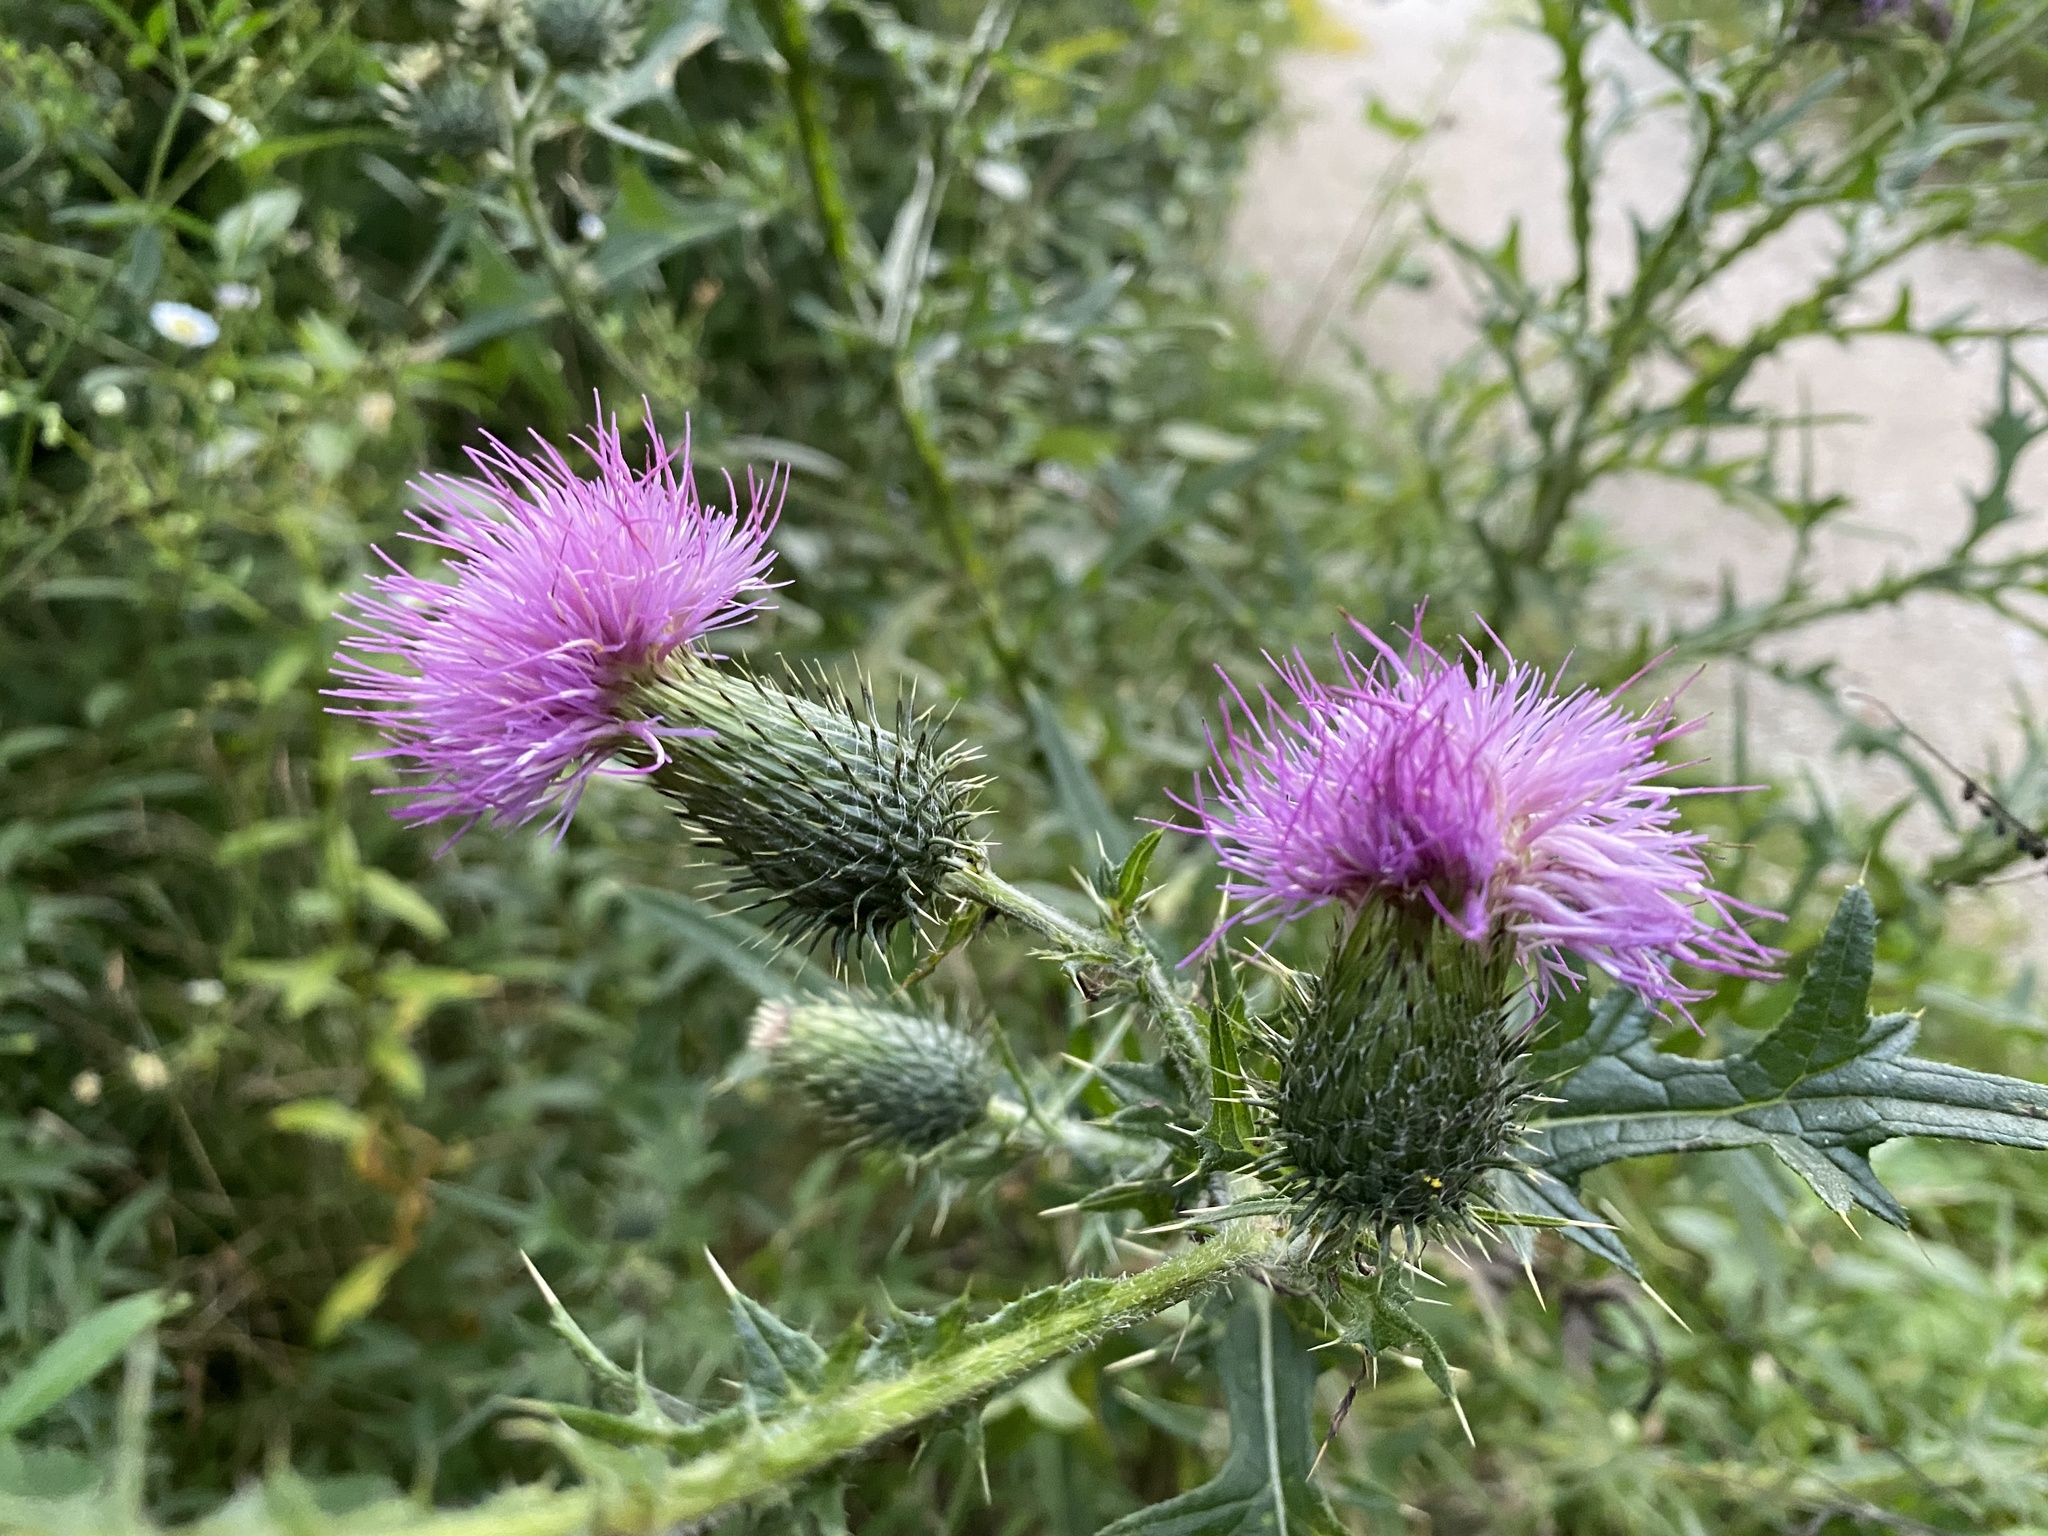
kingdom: Plantae
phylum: Tracheophyta
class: Magnoliopsida
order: Asterales
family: Asteraceae
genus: Cirsium
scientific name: Cirsium vulgare
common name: Bull thistle
